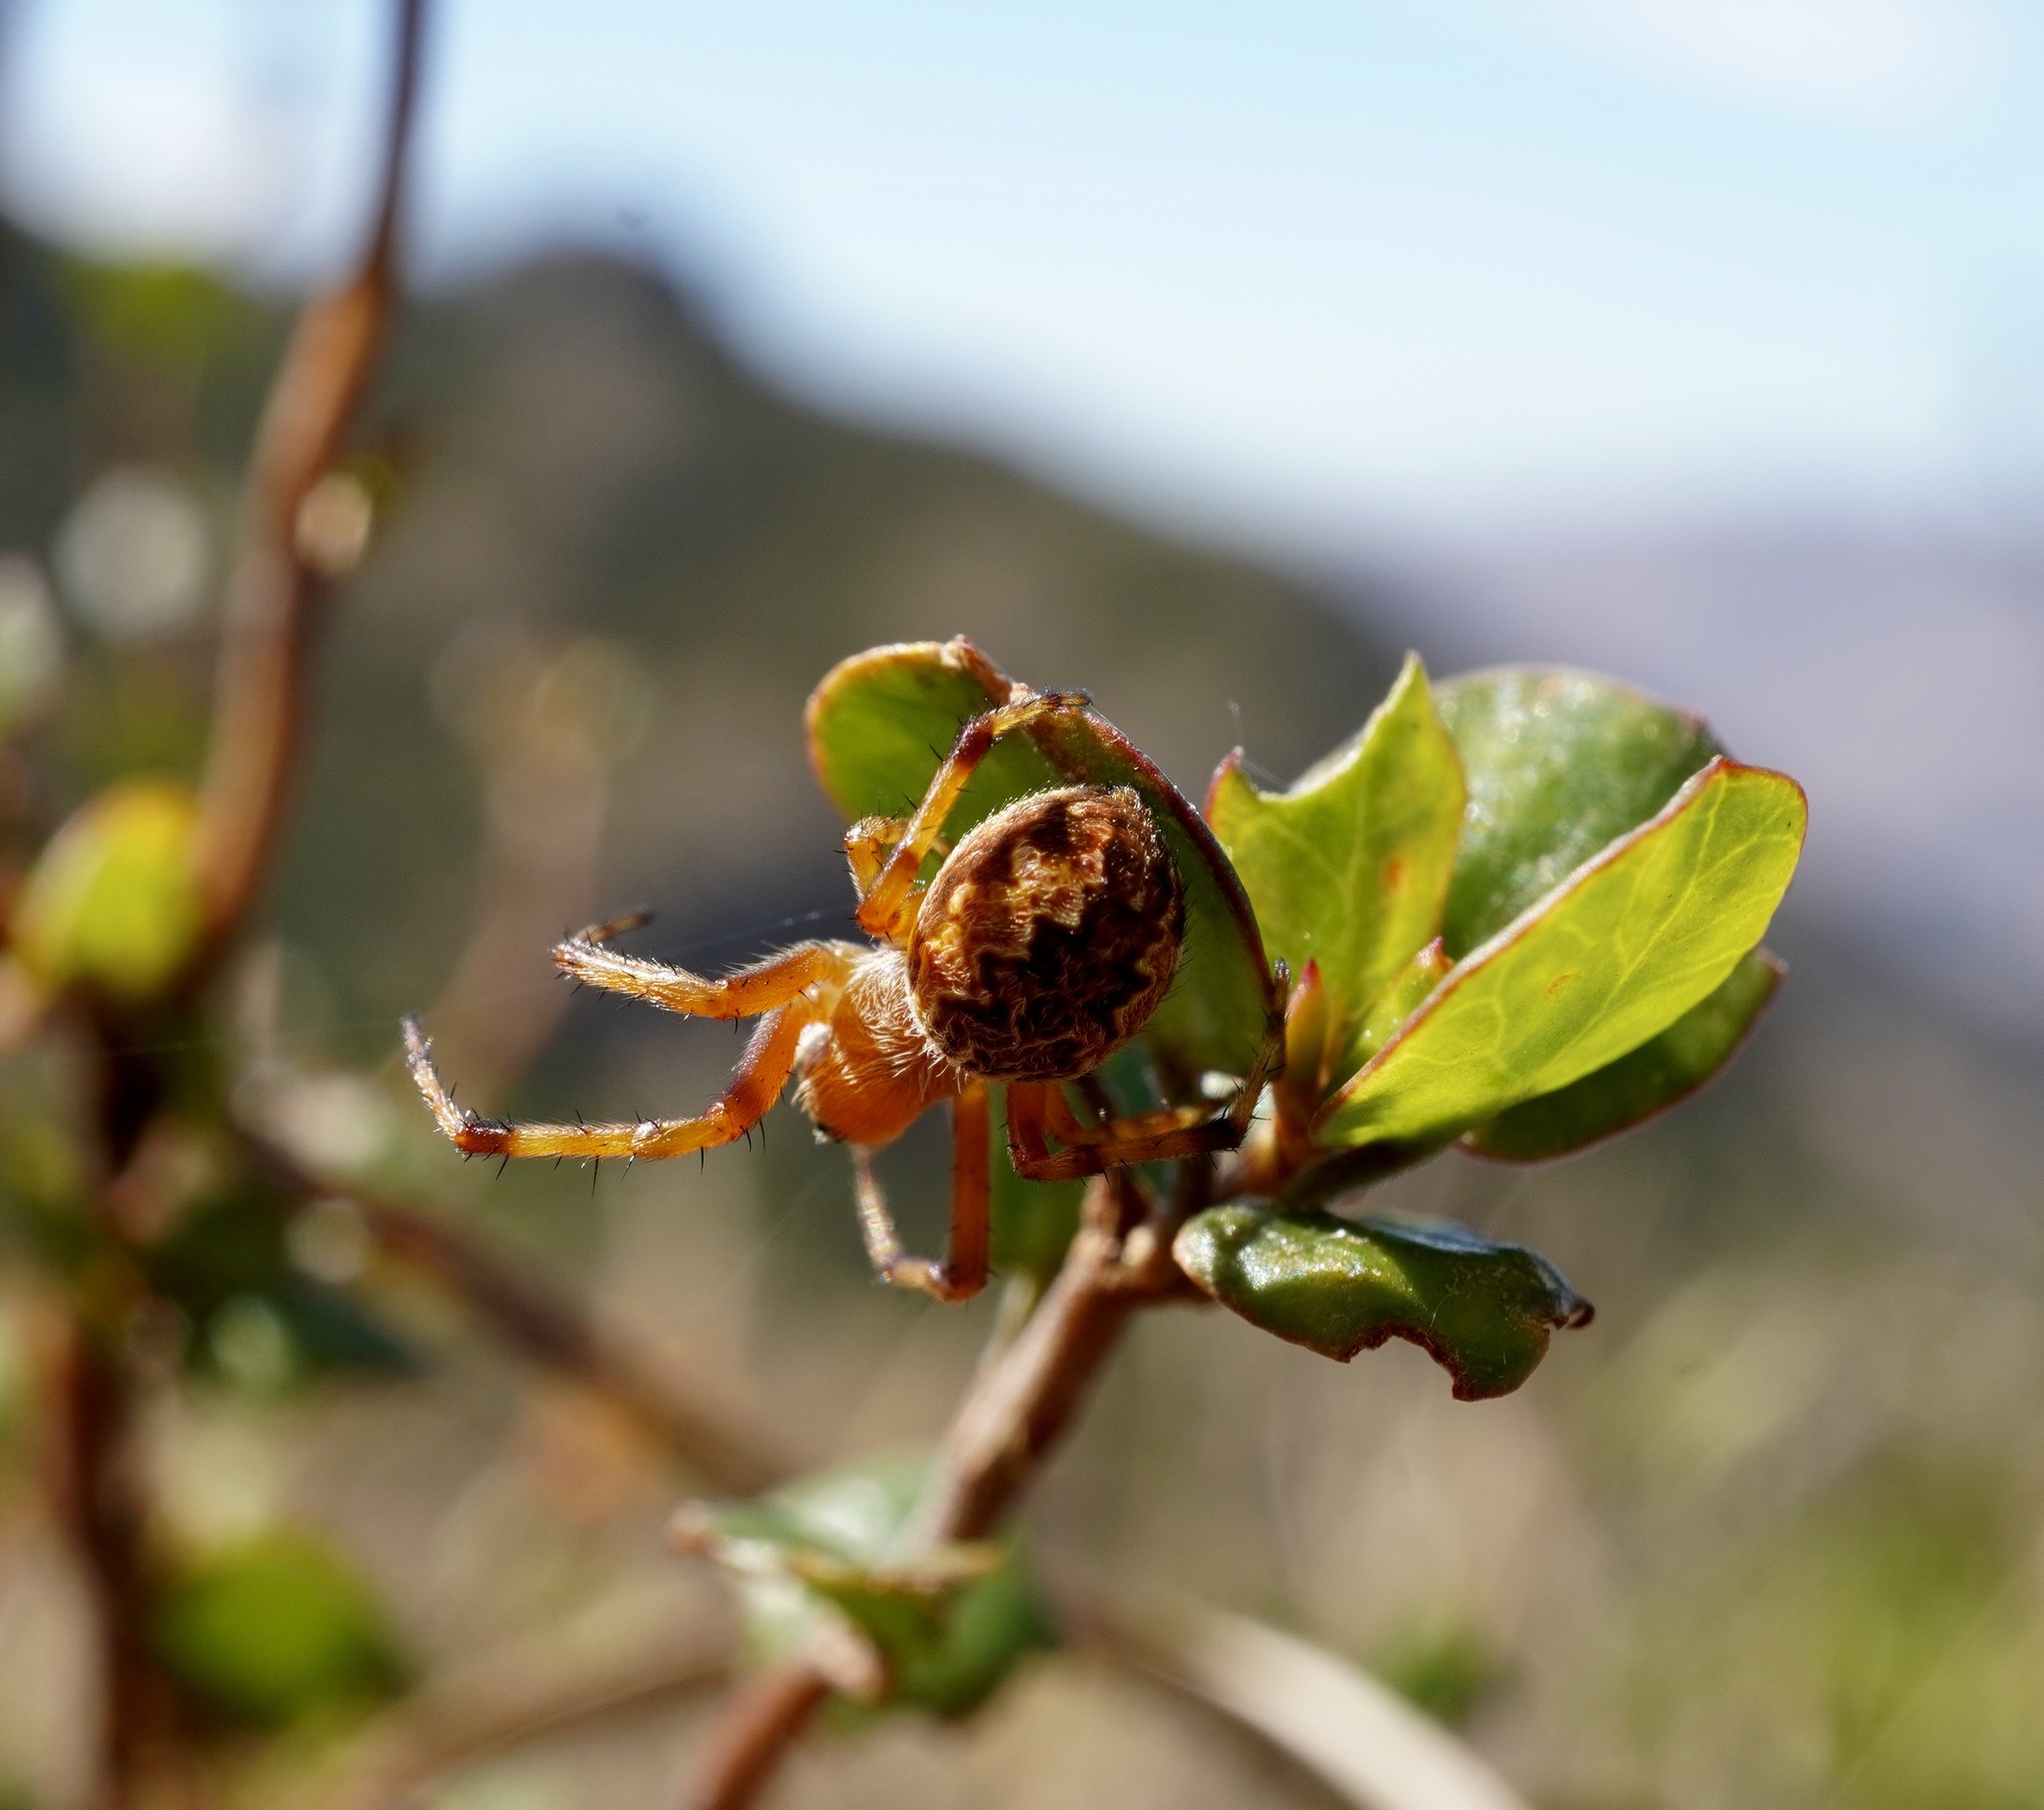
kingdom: Animalia
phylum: Arthropoda
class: Arachnida
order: Araneae
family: Araneidae
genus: Salsa
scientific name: Salsa fuliginata
